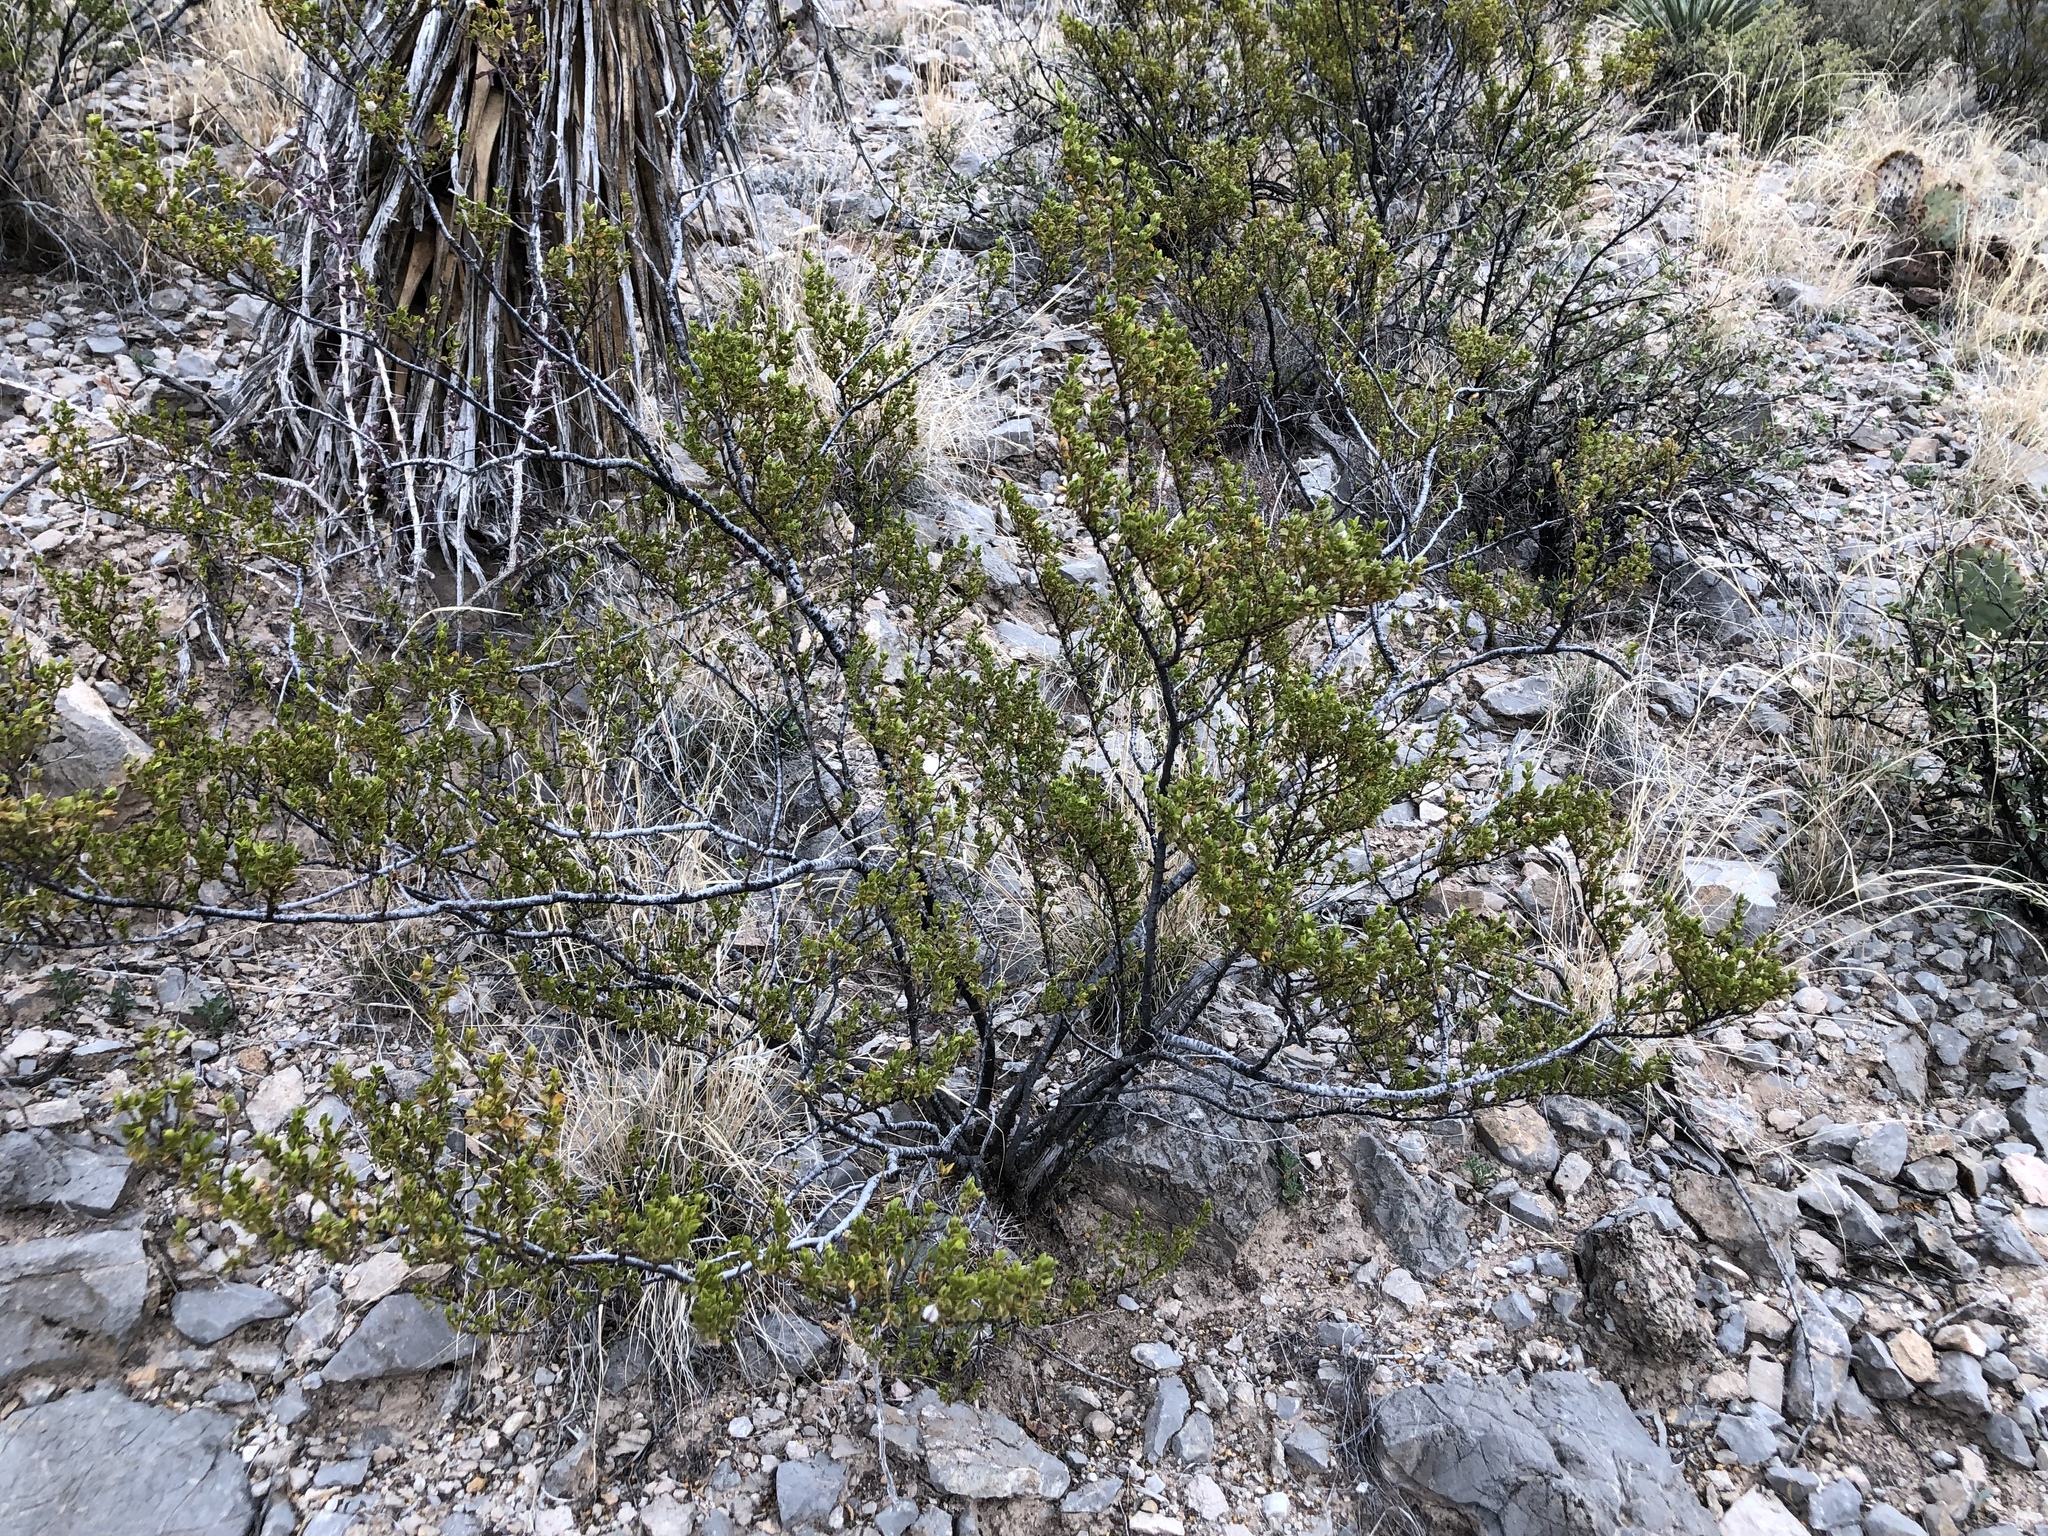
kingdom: Plantae
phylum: Tracheophyta
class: Magnoliopsida
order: Zygophyllales
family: Zygophyllaceae
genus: Larrea
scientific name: Larrea tridentata
